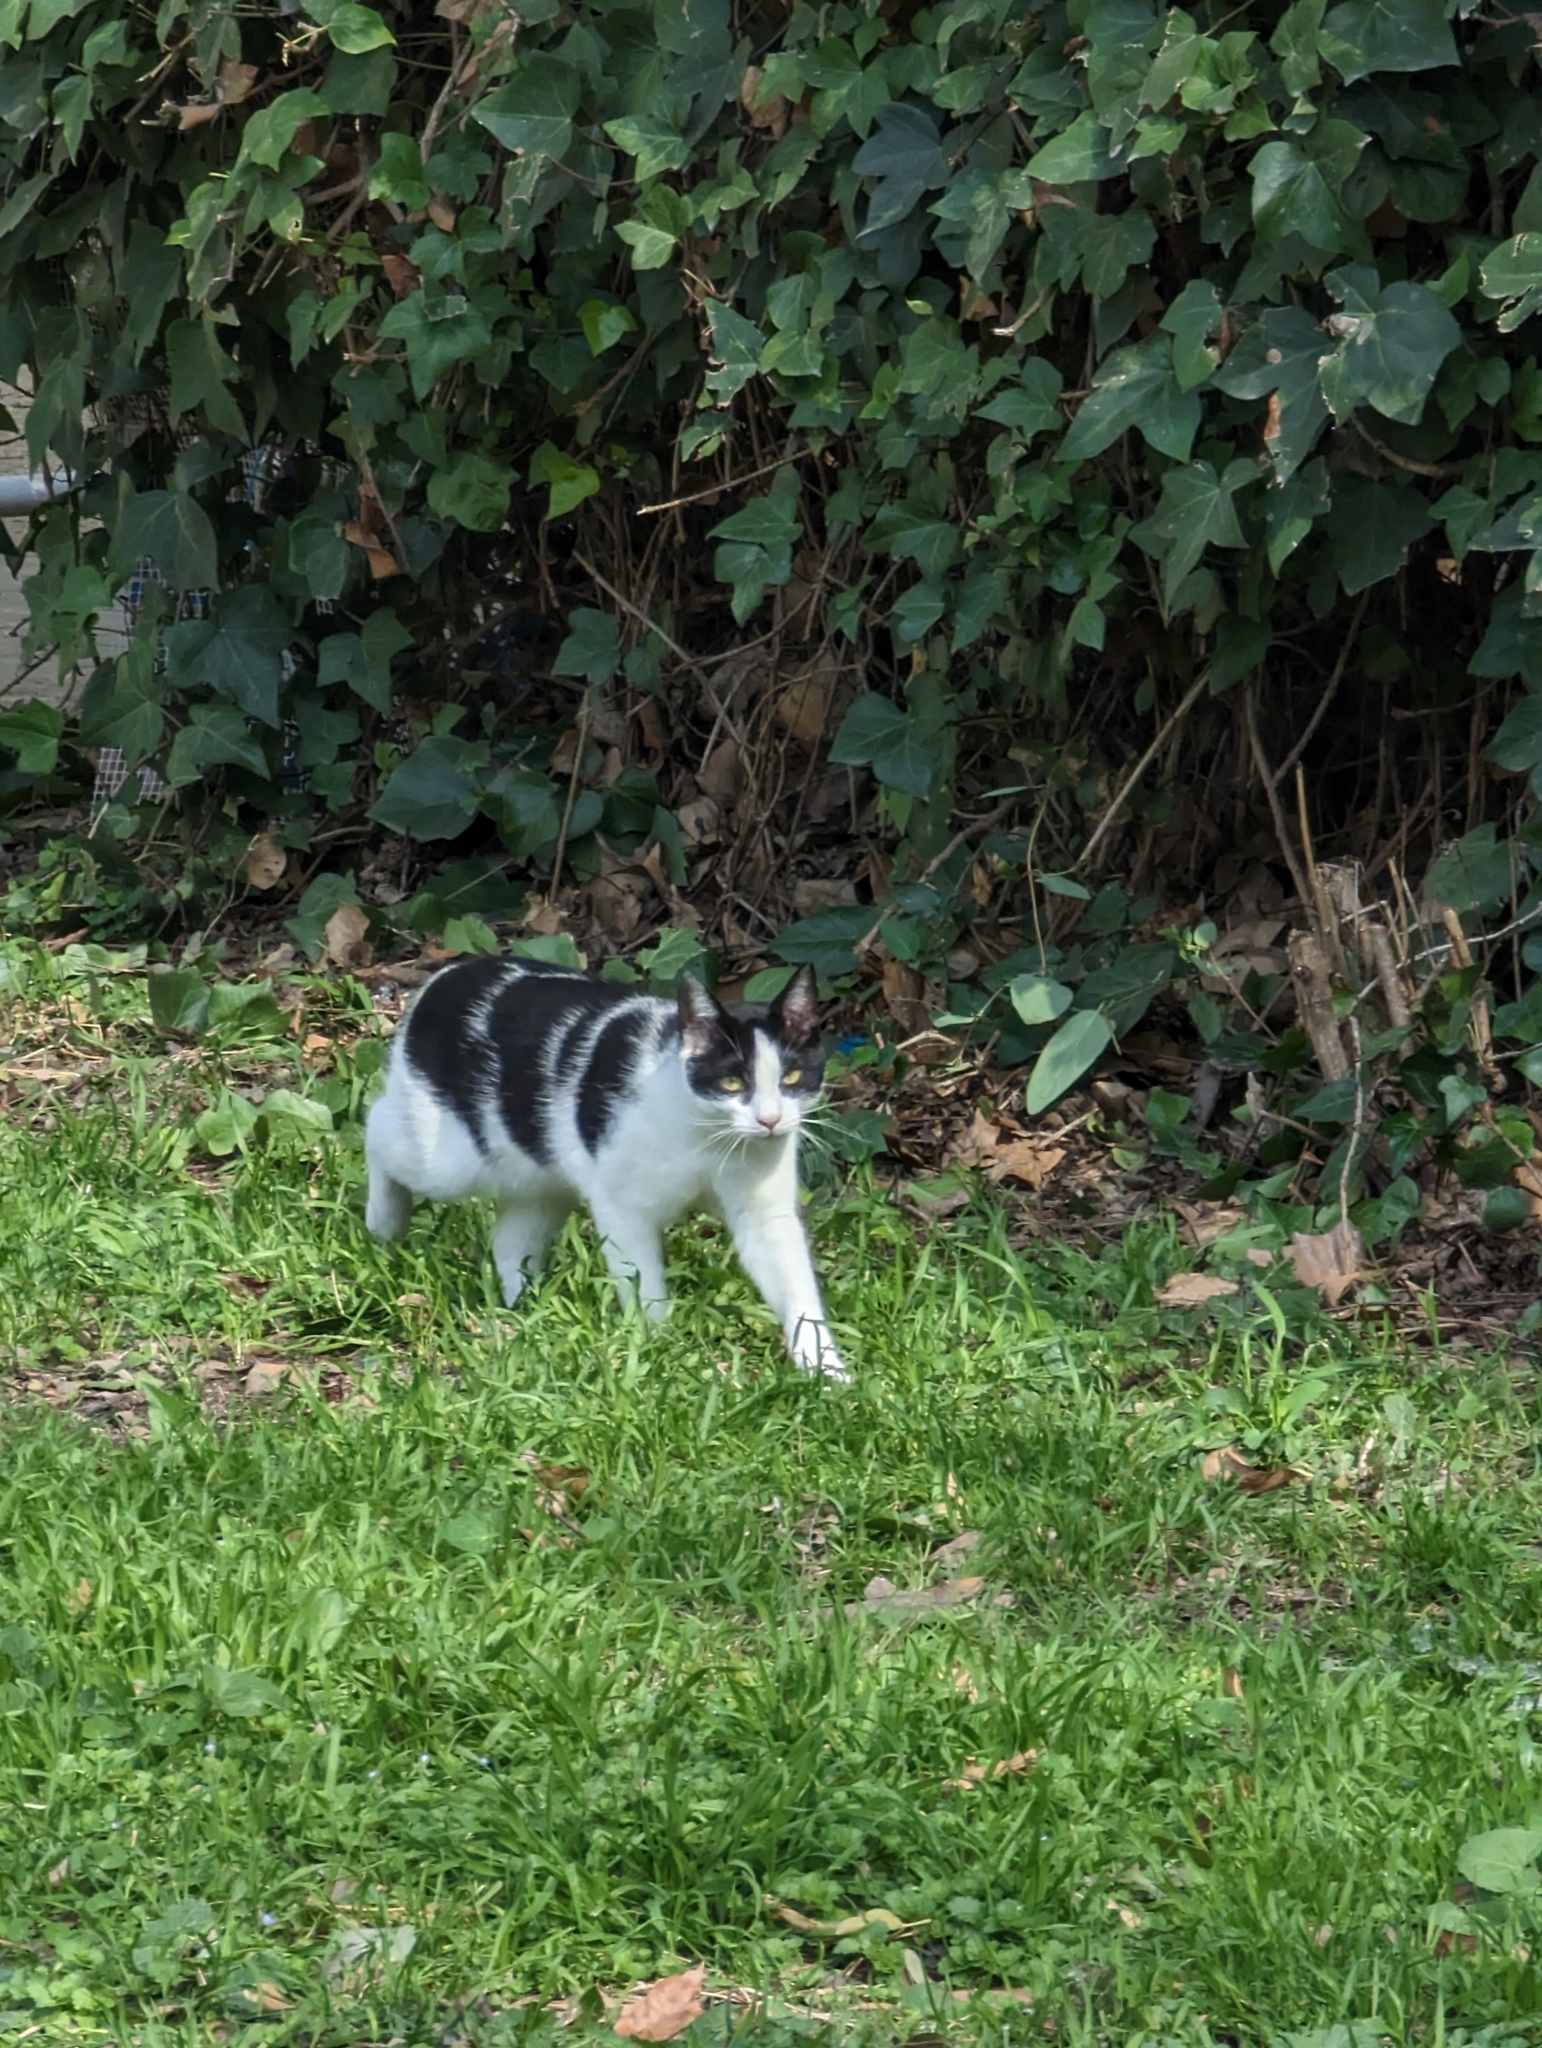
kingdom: Animalia
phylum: Chordata
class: Mammalia
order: Carnivora
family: Felidae
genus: Felis
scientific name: Felis catus
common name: Domestic cat
